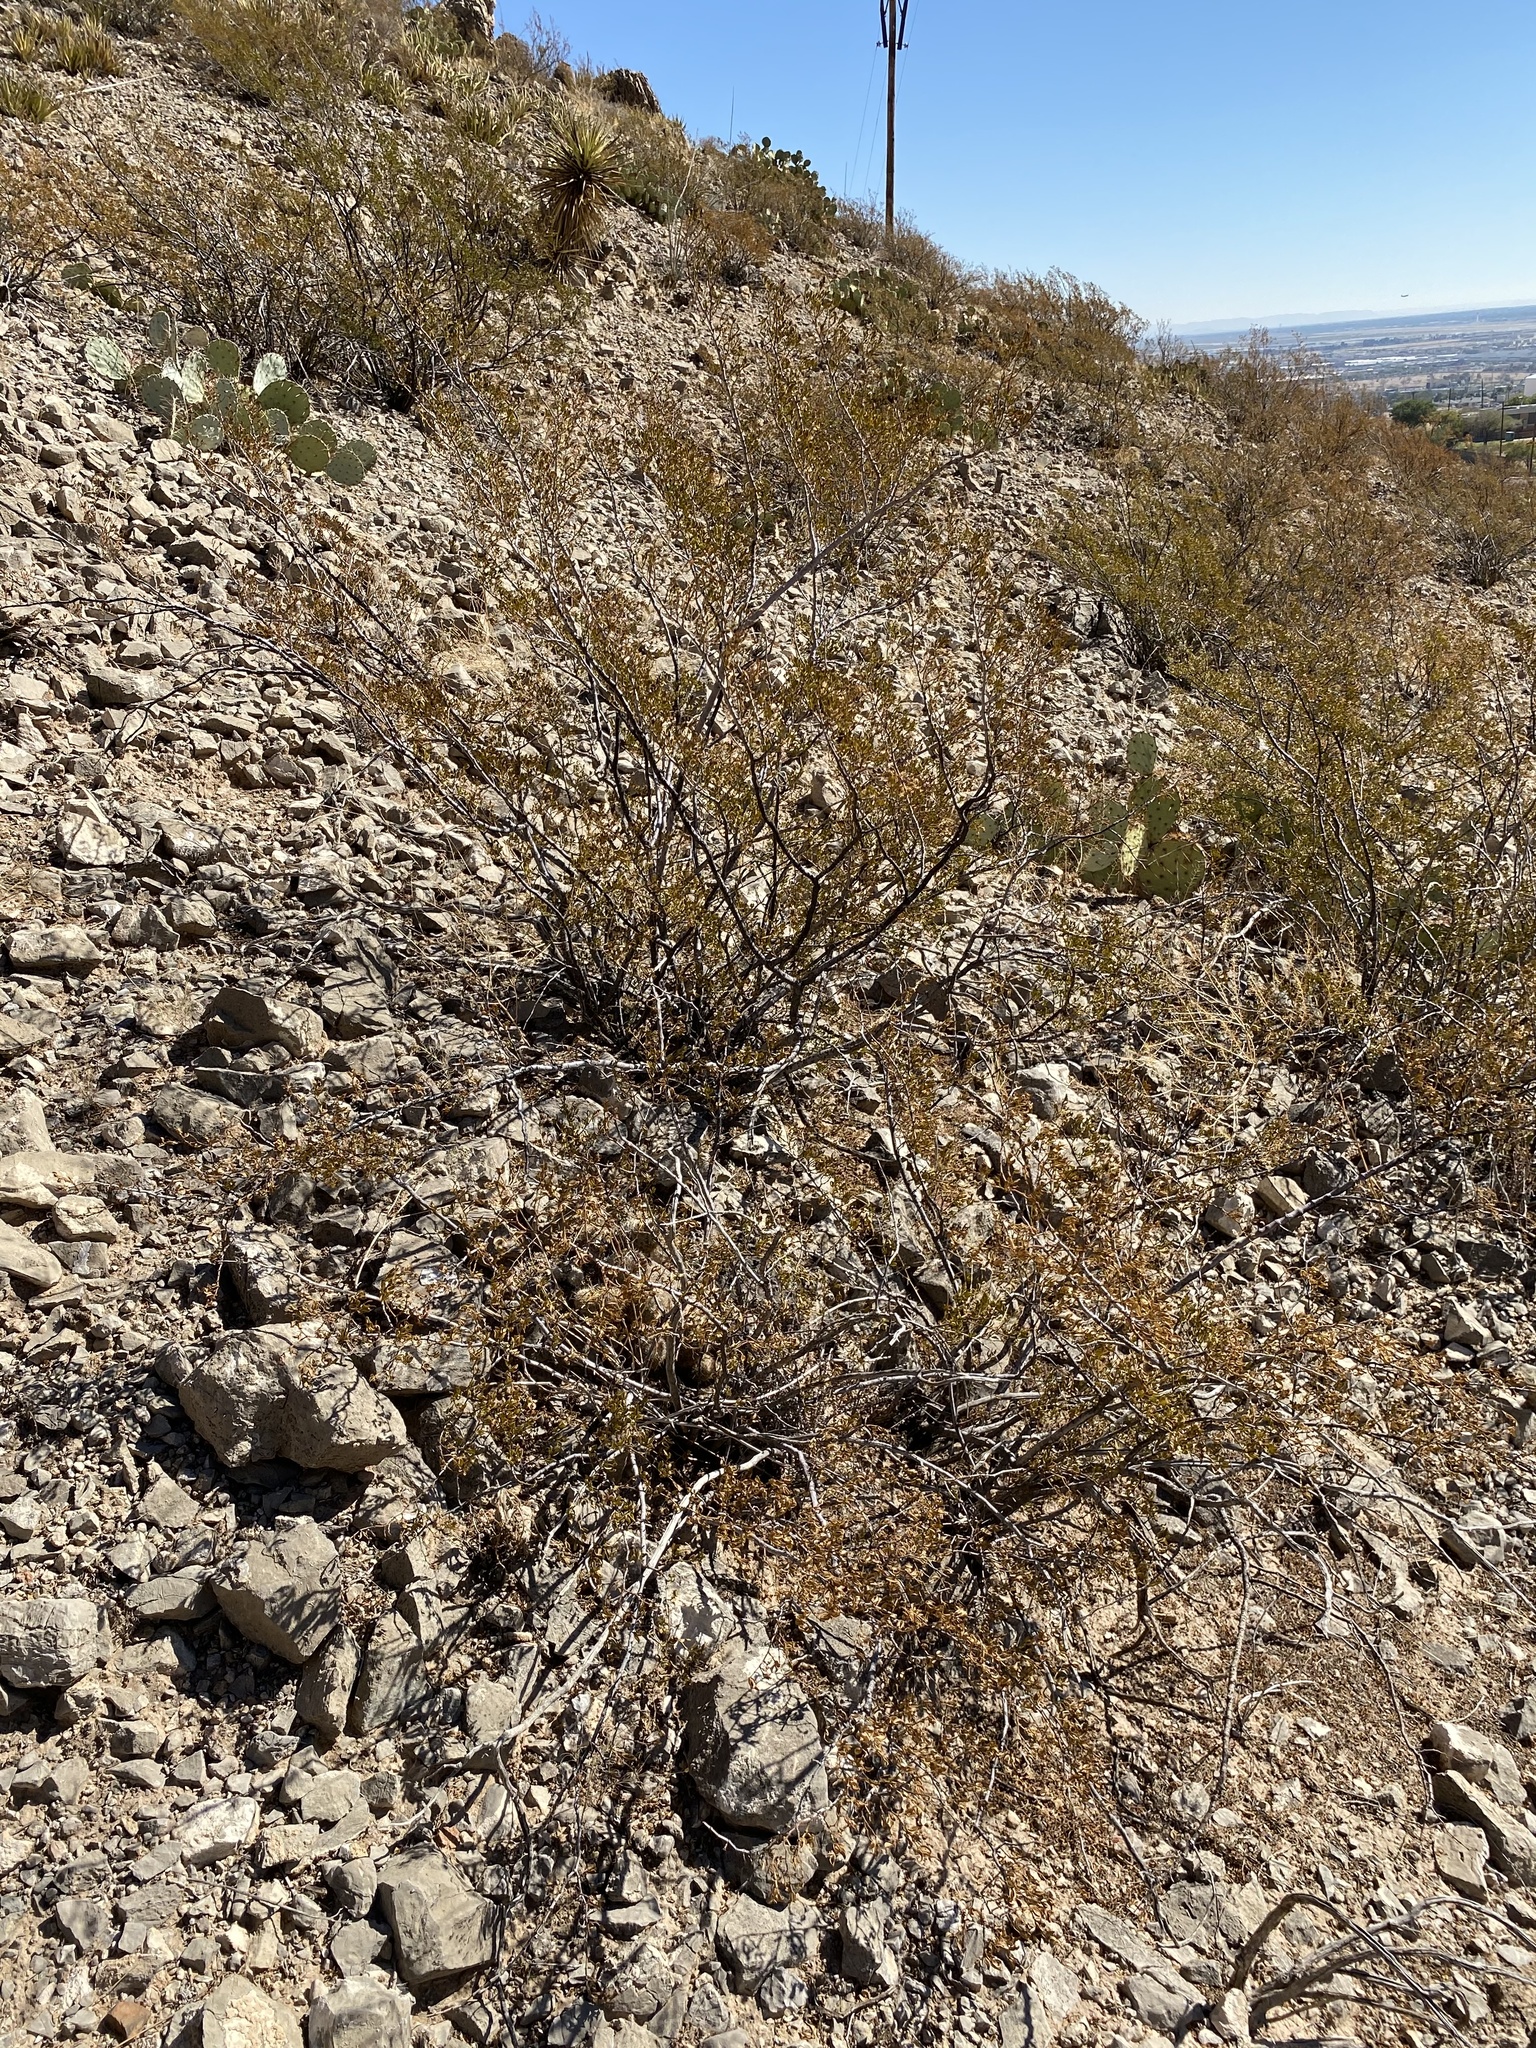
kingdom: Plantae
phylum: Tracheophyta
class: Magnoliopsida
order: Zygophyllales
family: Zygophyllaceae
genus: Larrea
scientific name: Larrea tridentata
